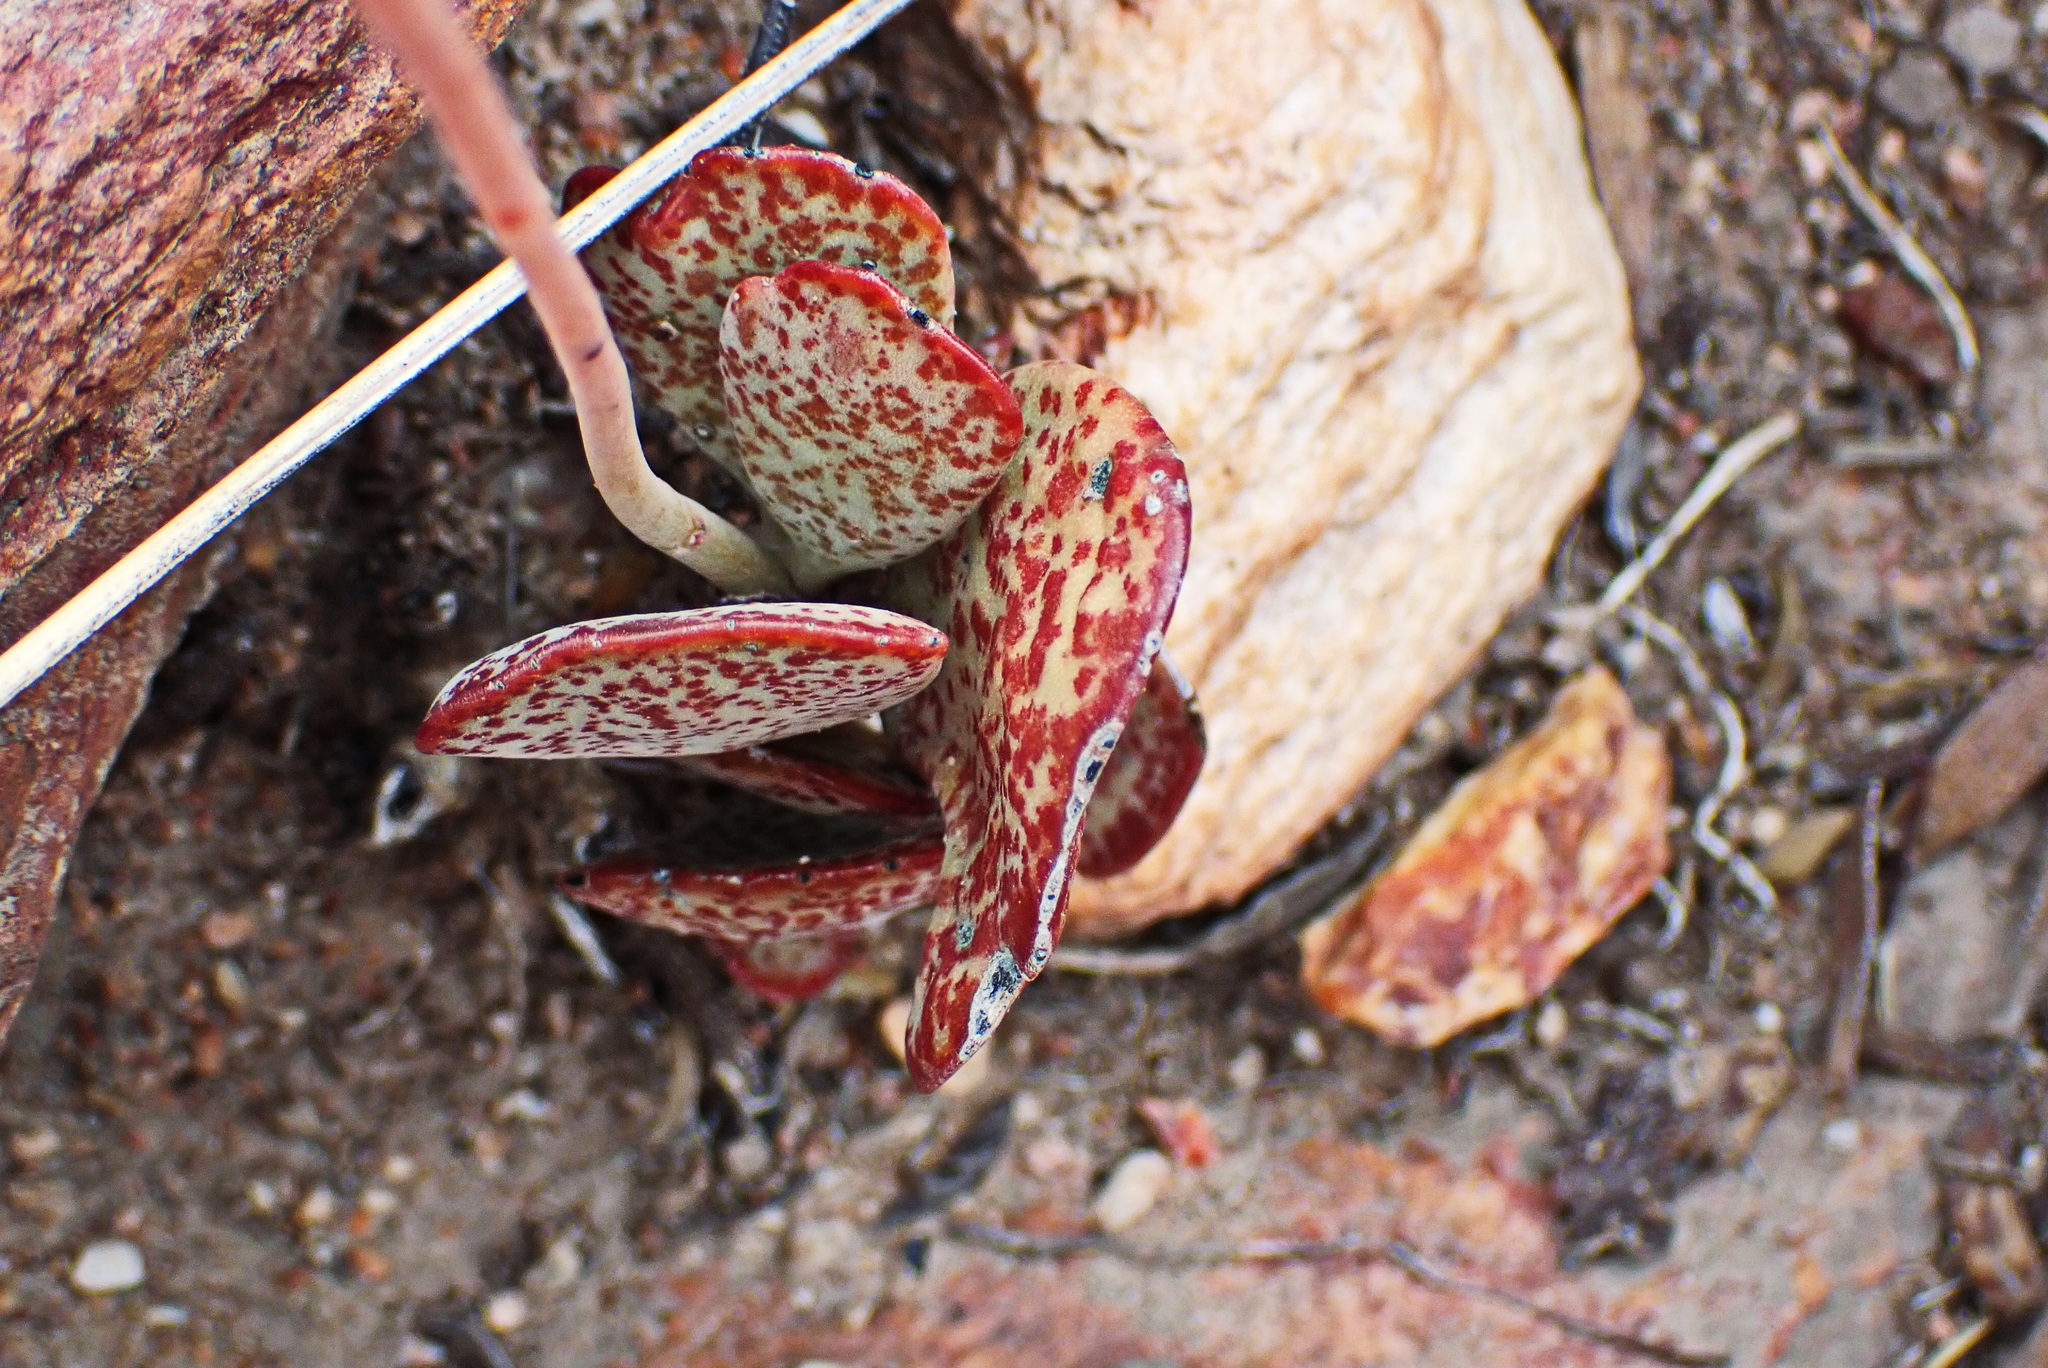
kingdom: Plantae
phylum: Tracheophyta
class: Magnoliopsida
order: Saxifragales
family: Crassulaceae
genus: Adromischus
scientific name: Adromischus triflorus
